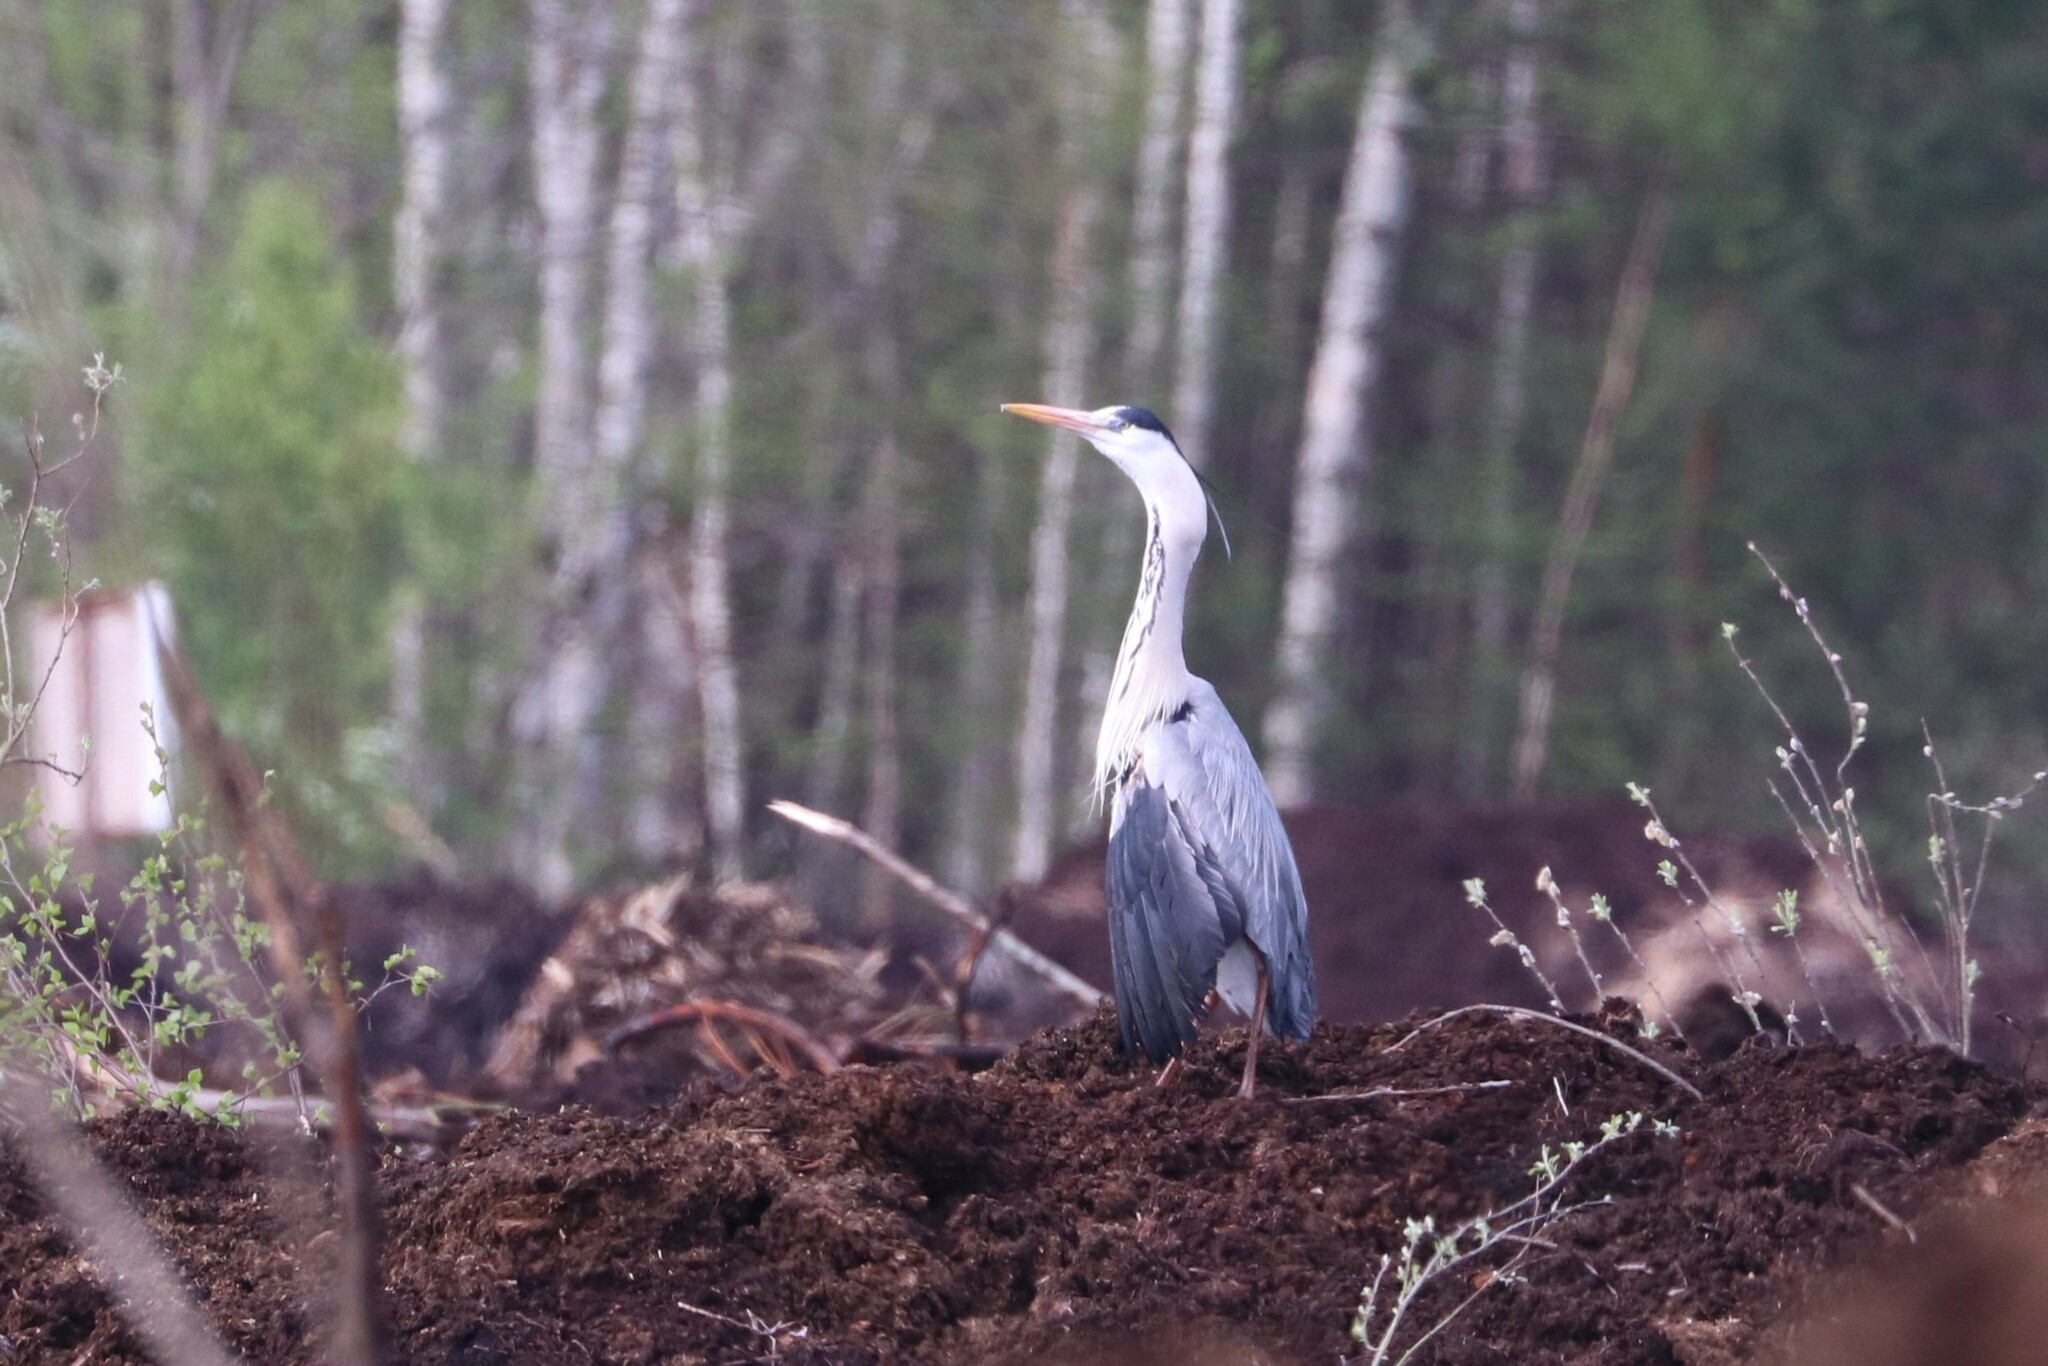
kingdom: Animalia
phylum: Chordata
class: Aves
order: Pelecaniformes
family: Ardeidae
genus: Ardea
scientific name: Ardea cinerea
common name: Grey heron
